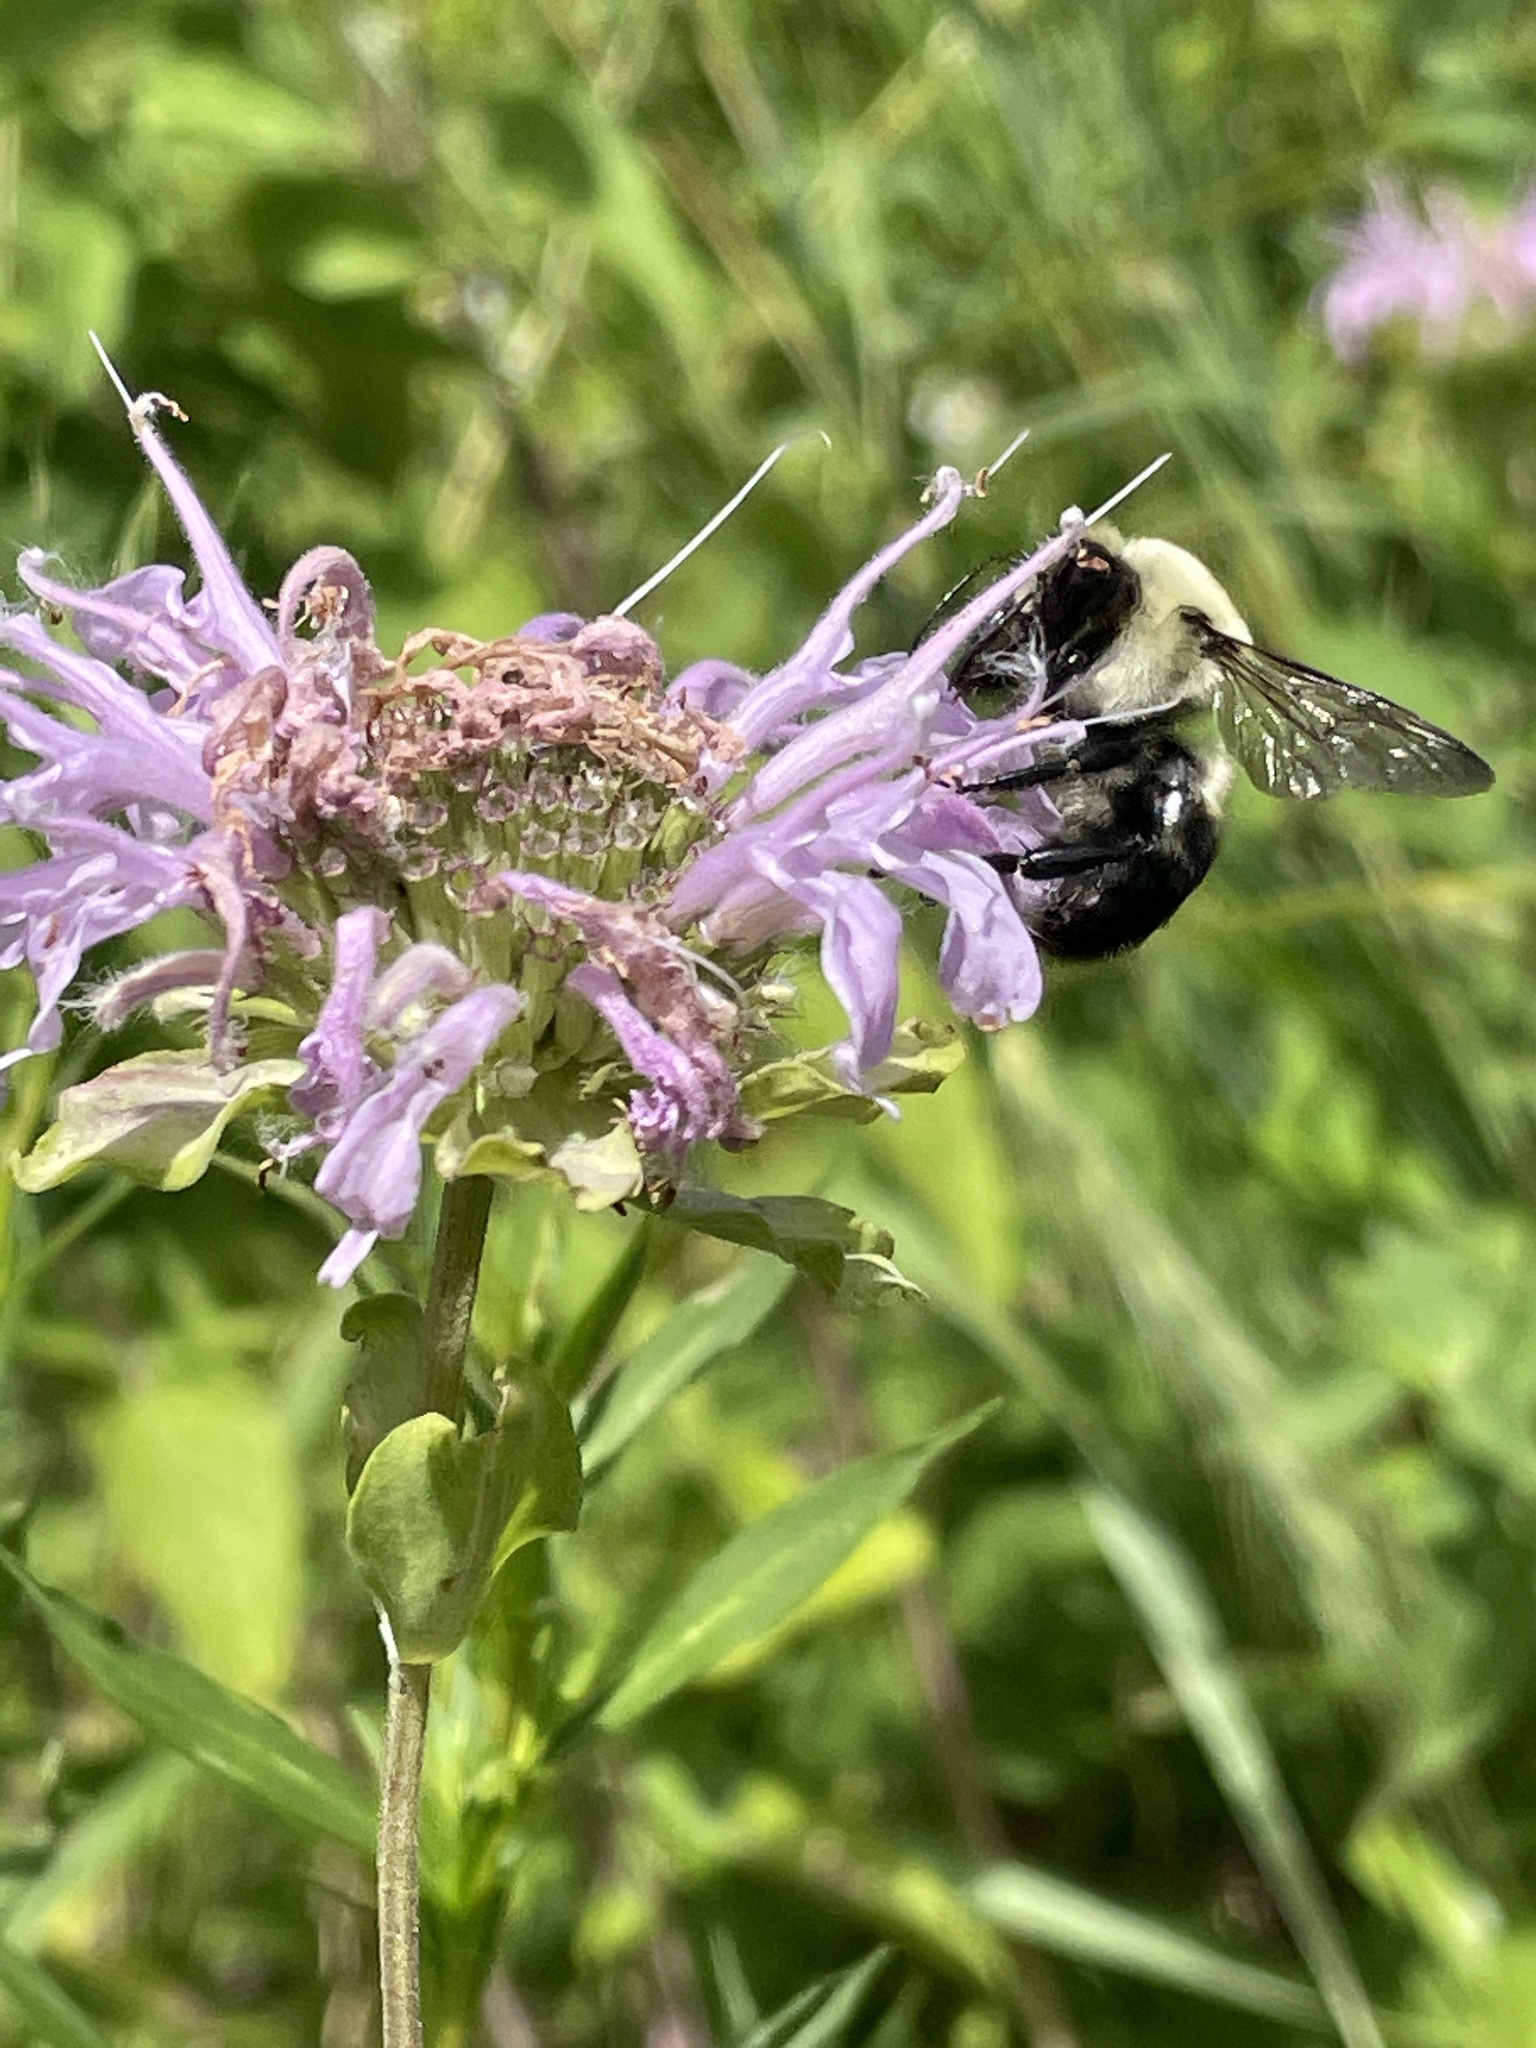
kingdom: Animalia
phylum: Arthropoda
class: Insecta
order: Hymenoptera
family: Apidae
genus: Bombus
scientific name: Bombus griseocollis
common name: Brown-belted bumble bee
